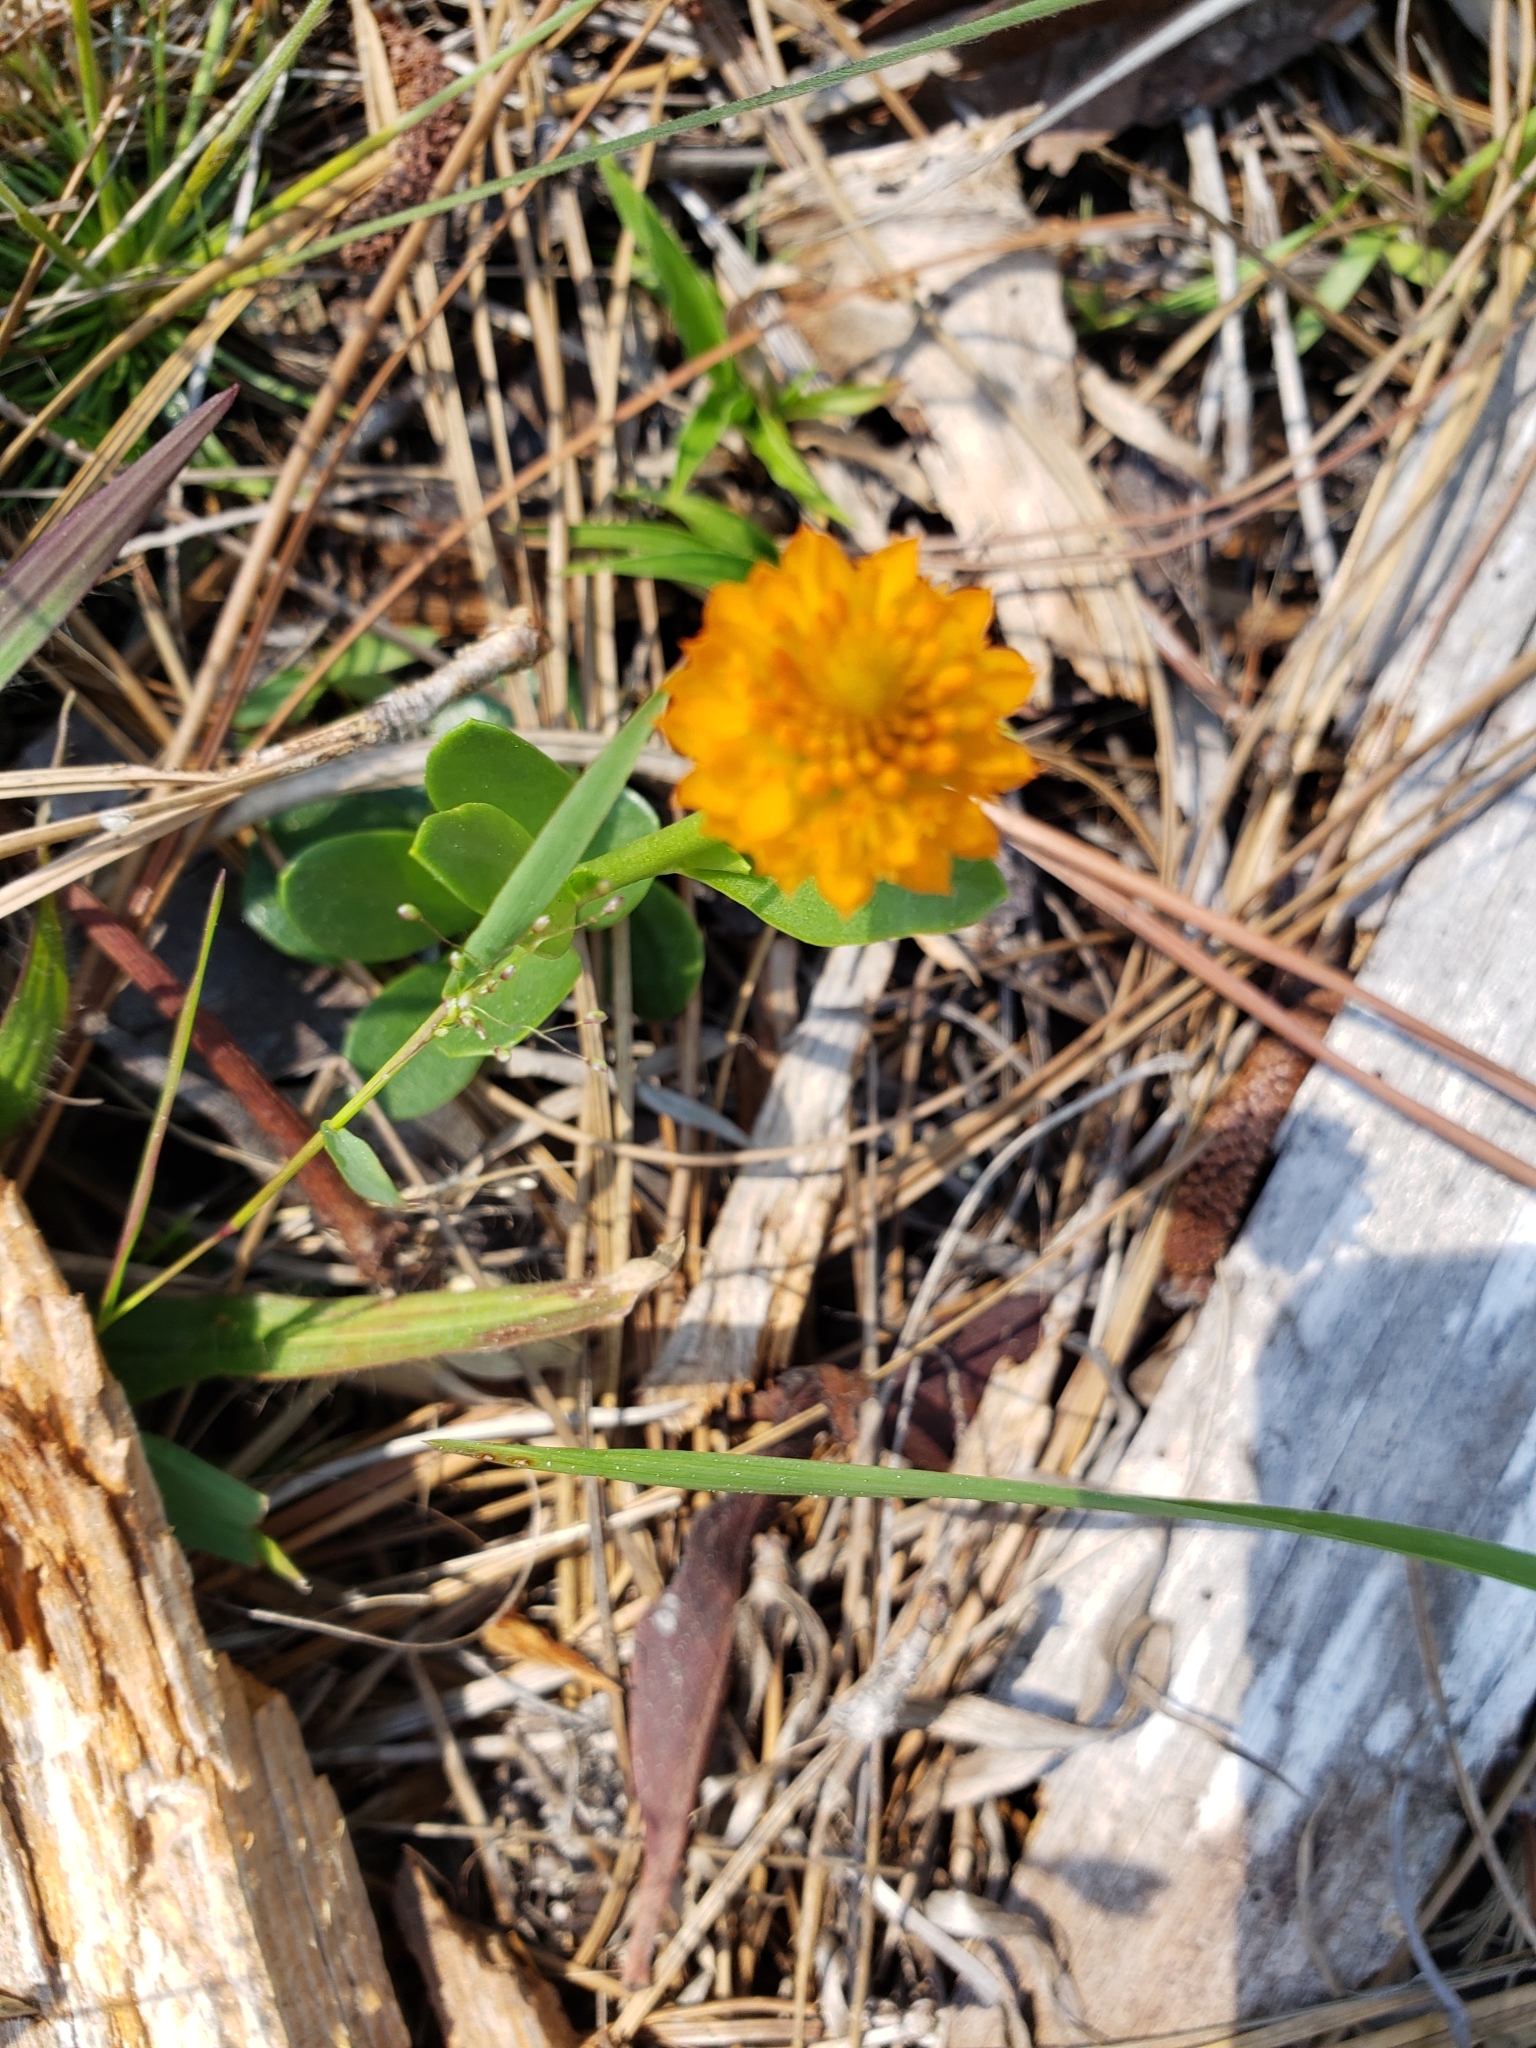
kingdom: Plantae
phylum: Tracheophyta
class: Magnoliopsida
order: Fabales
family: Polygalaceae
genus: Polygala
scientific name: Polygala lutea
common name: Orange milkwort
